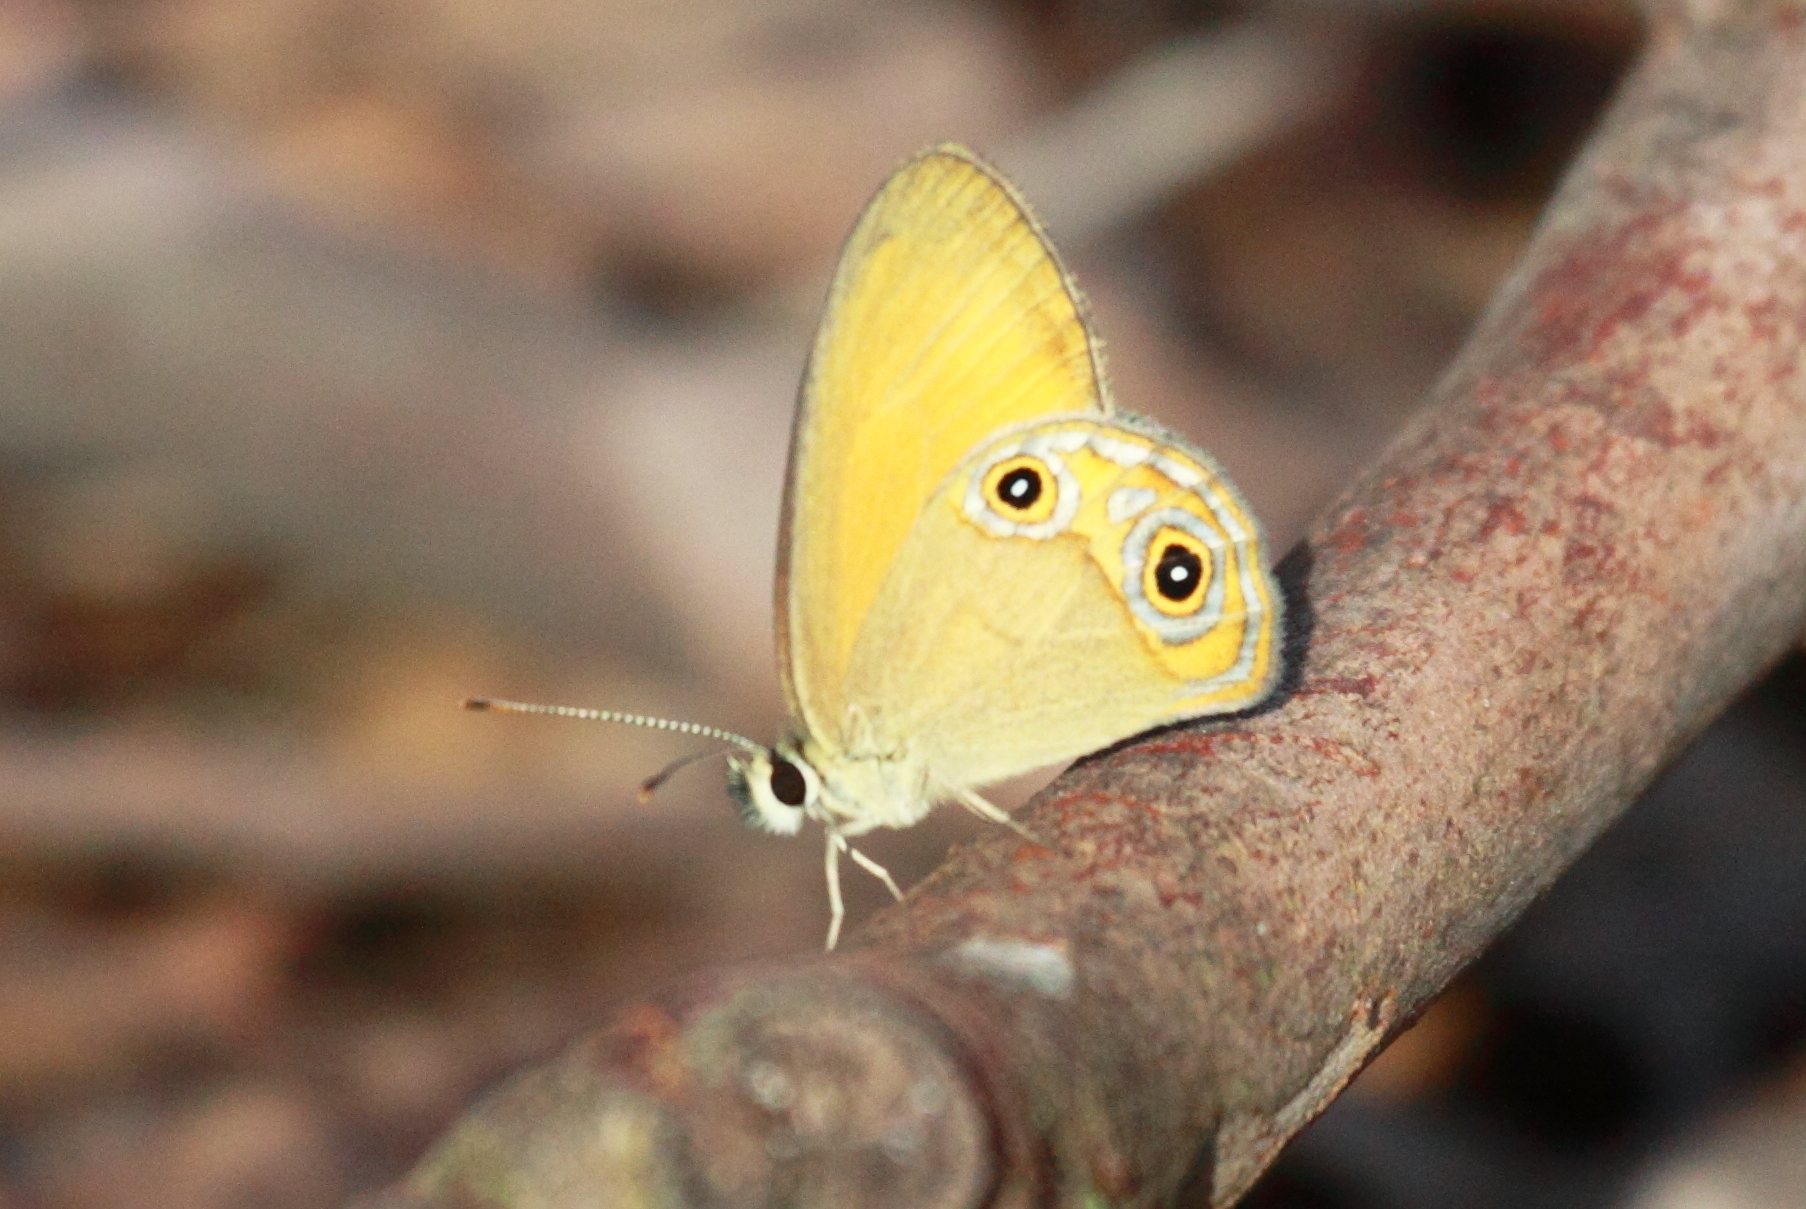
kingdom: Animalia
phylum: Arthropoda
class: Insecta
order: Lepidoptera
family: Nymphalidae
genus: Hypocysta
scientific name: Hypocysta adiante
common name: Orange ringlet
